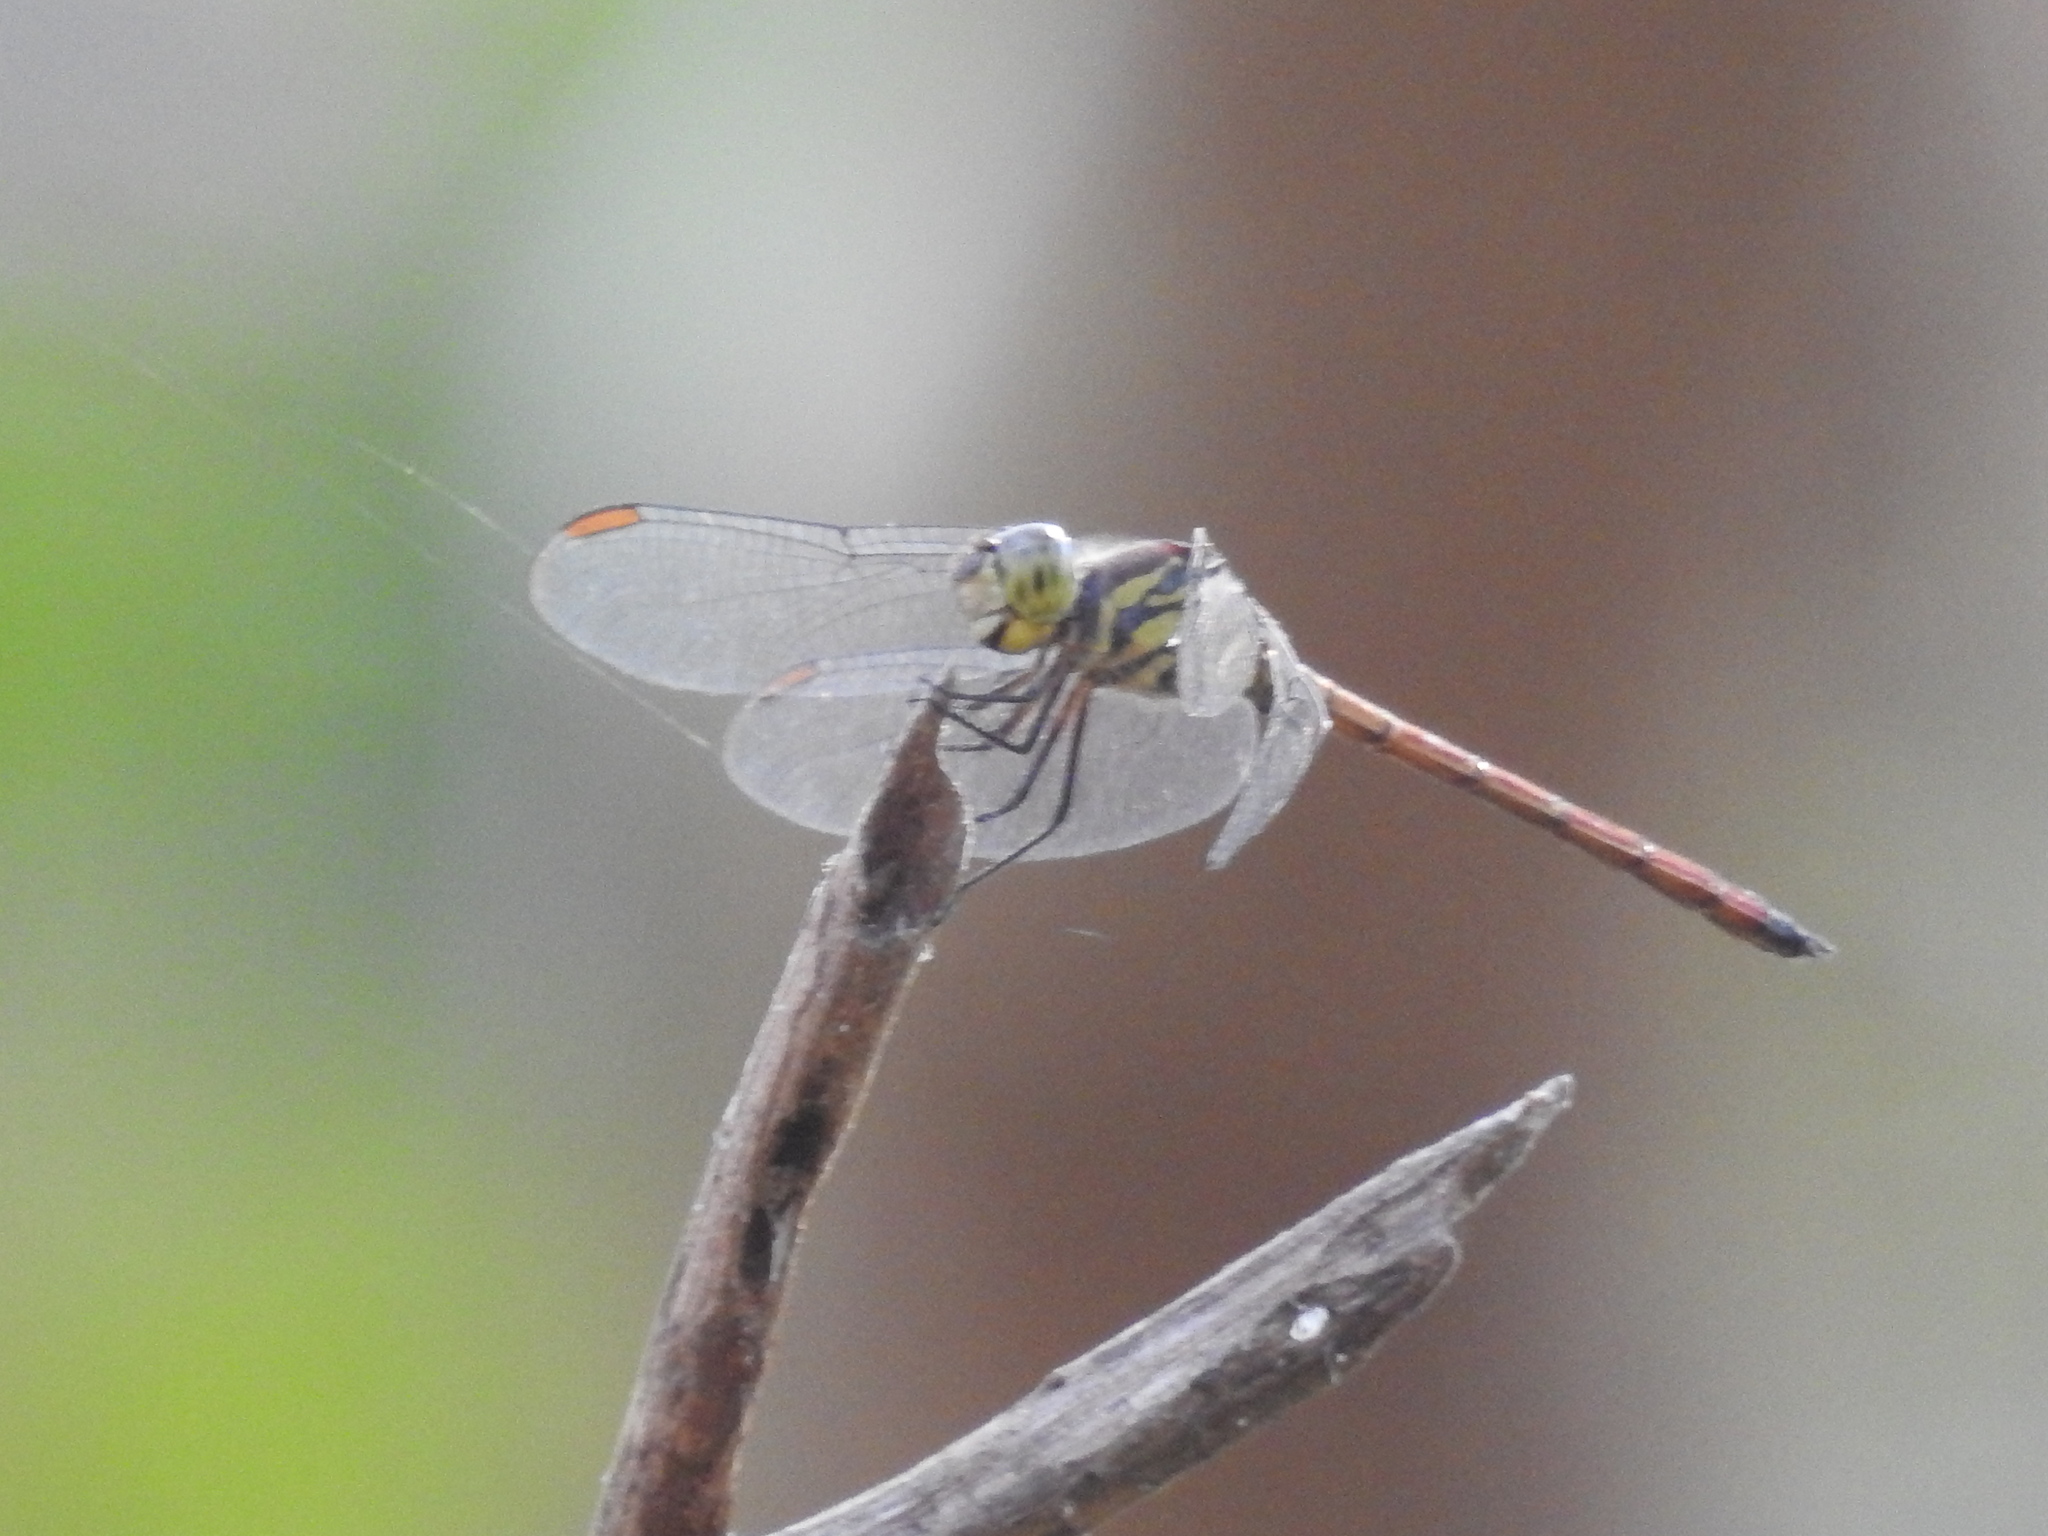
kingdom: Animalia
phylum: Arthropoda
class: Insecta
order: Odonata
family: Libellulidae
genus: Lathrecista
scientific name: Lathrecista asiatica
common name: Scarlet grenadier
